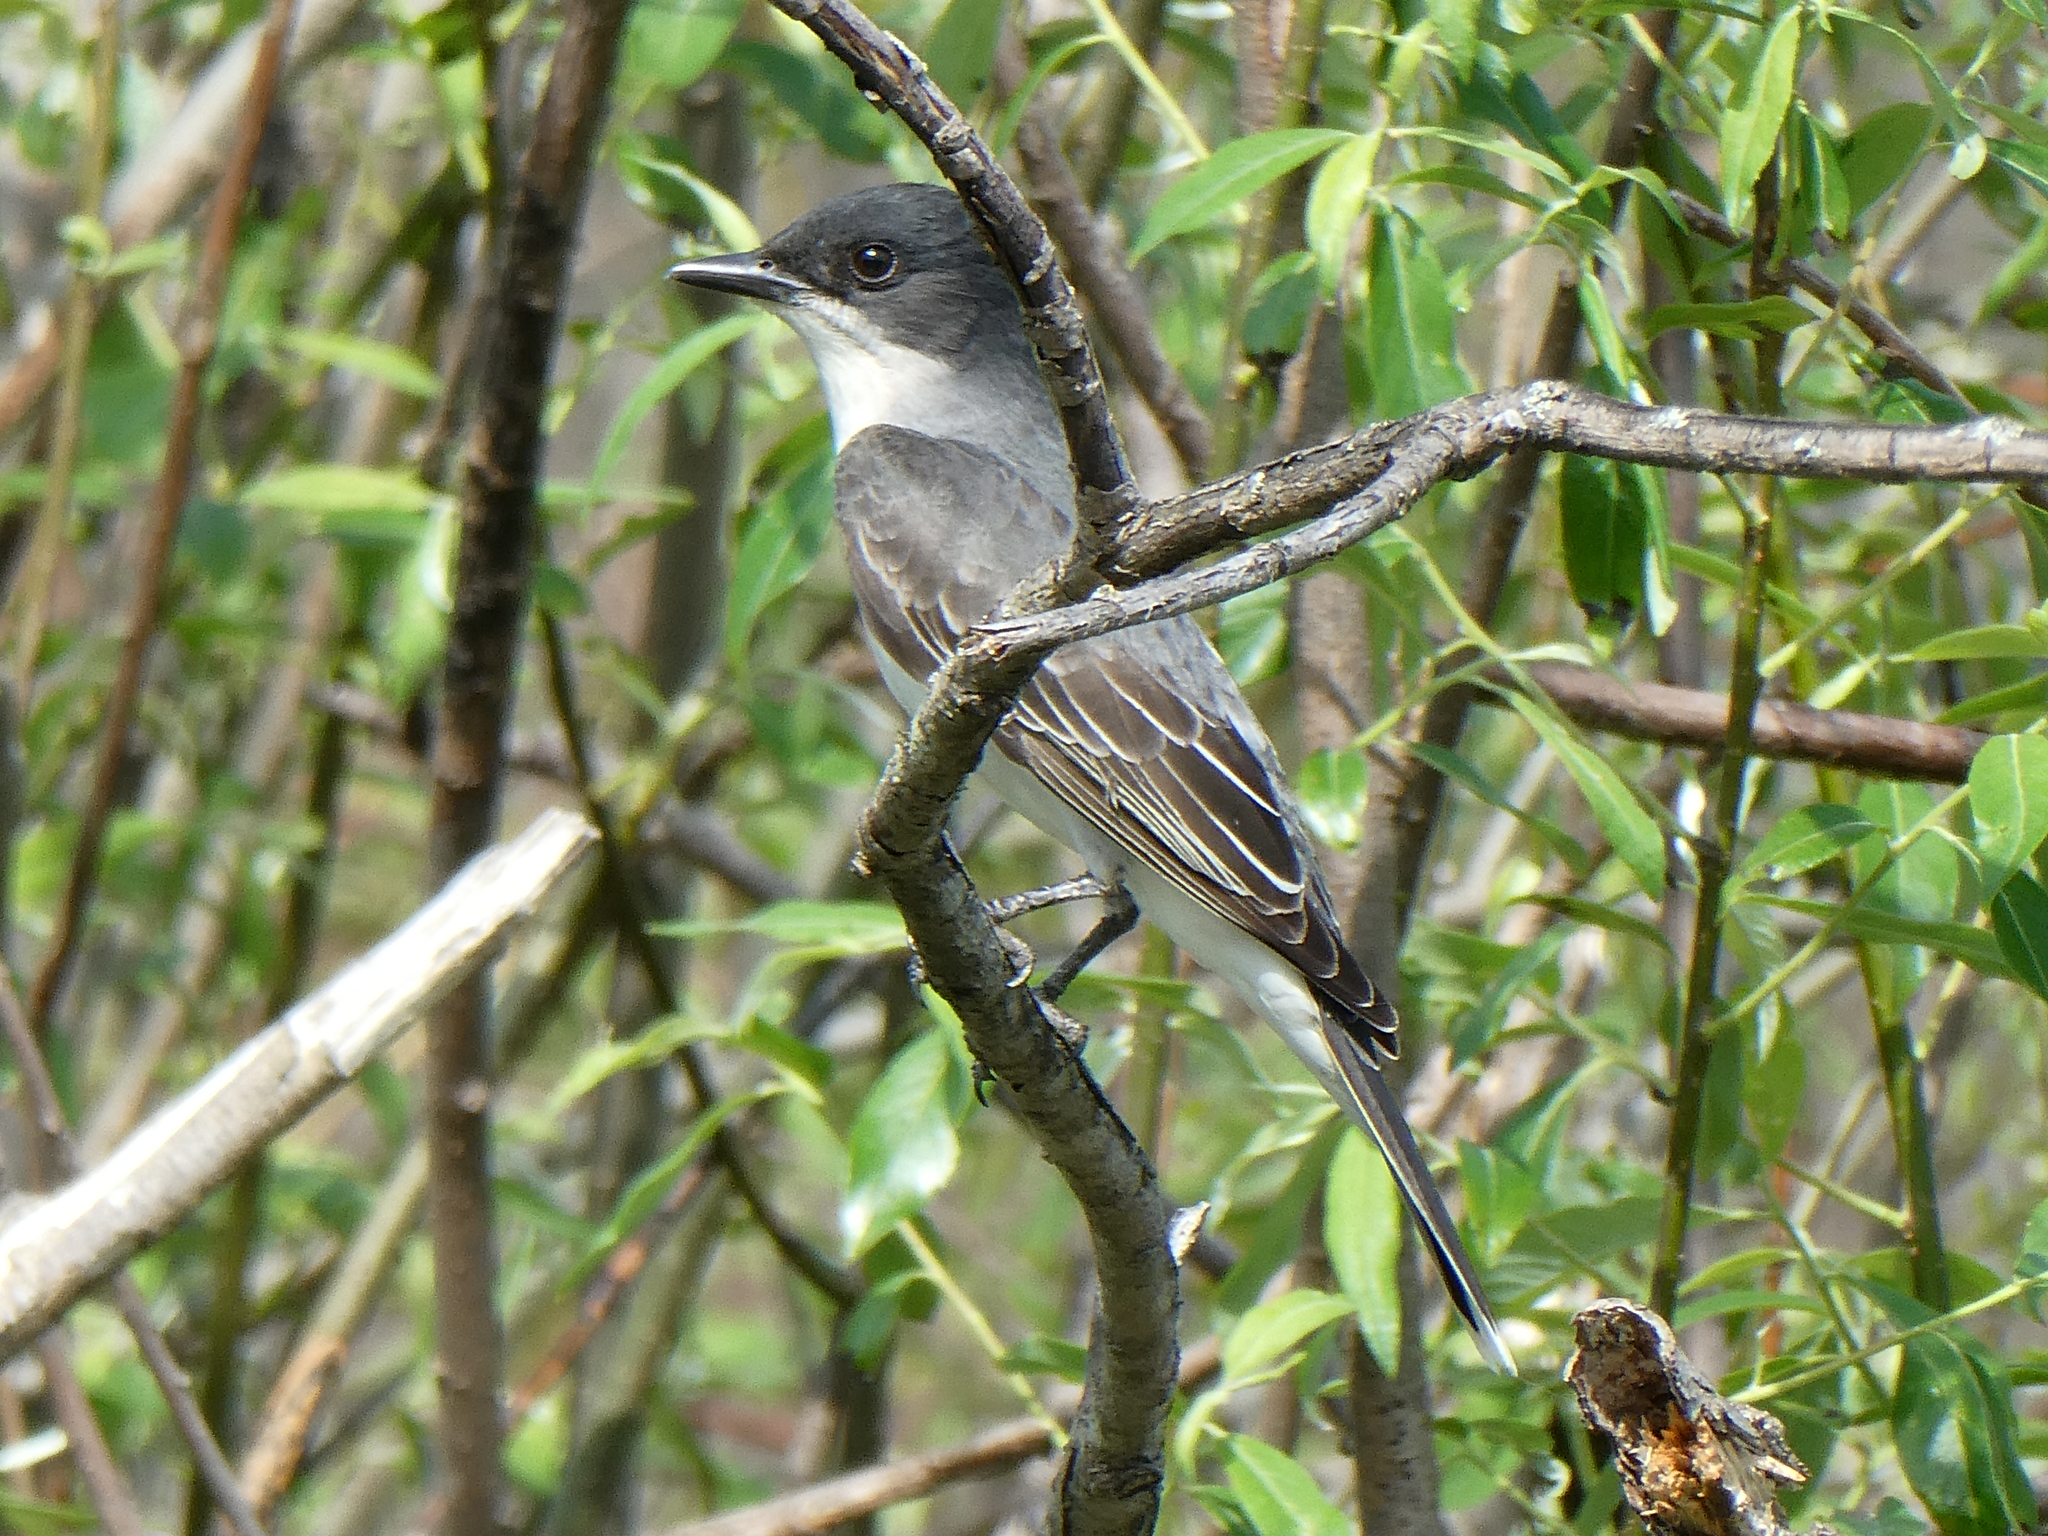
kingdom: Animalia
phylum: Chordata
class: Aves
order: Passeriformes
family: Tyrannidae
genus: Tyrannus
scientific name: Tyrannus tyrannus
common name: Eastern kingbird
